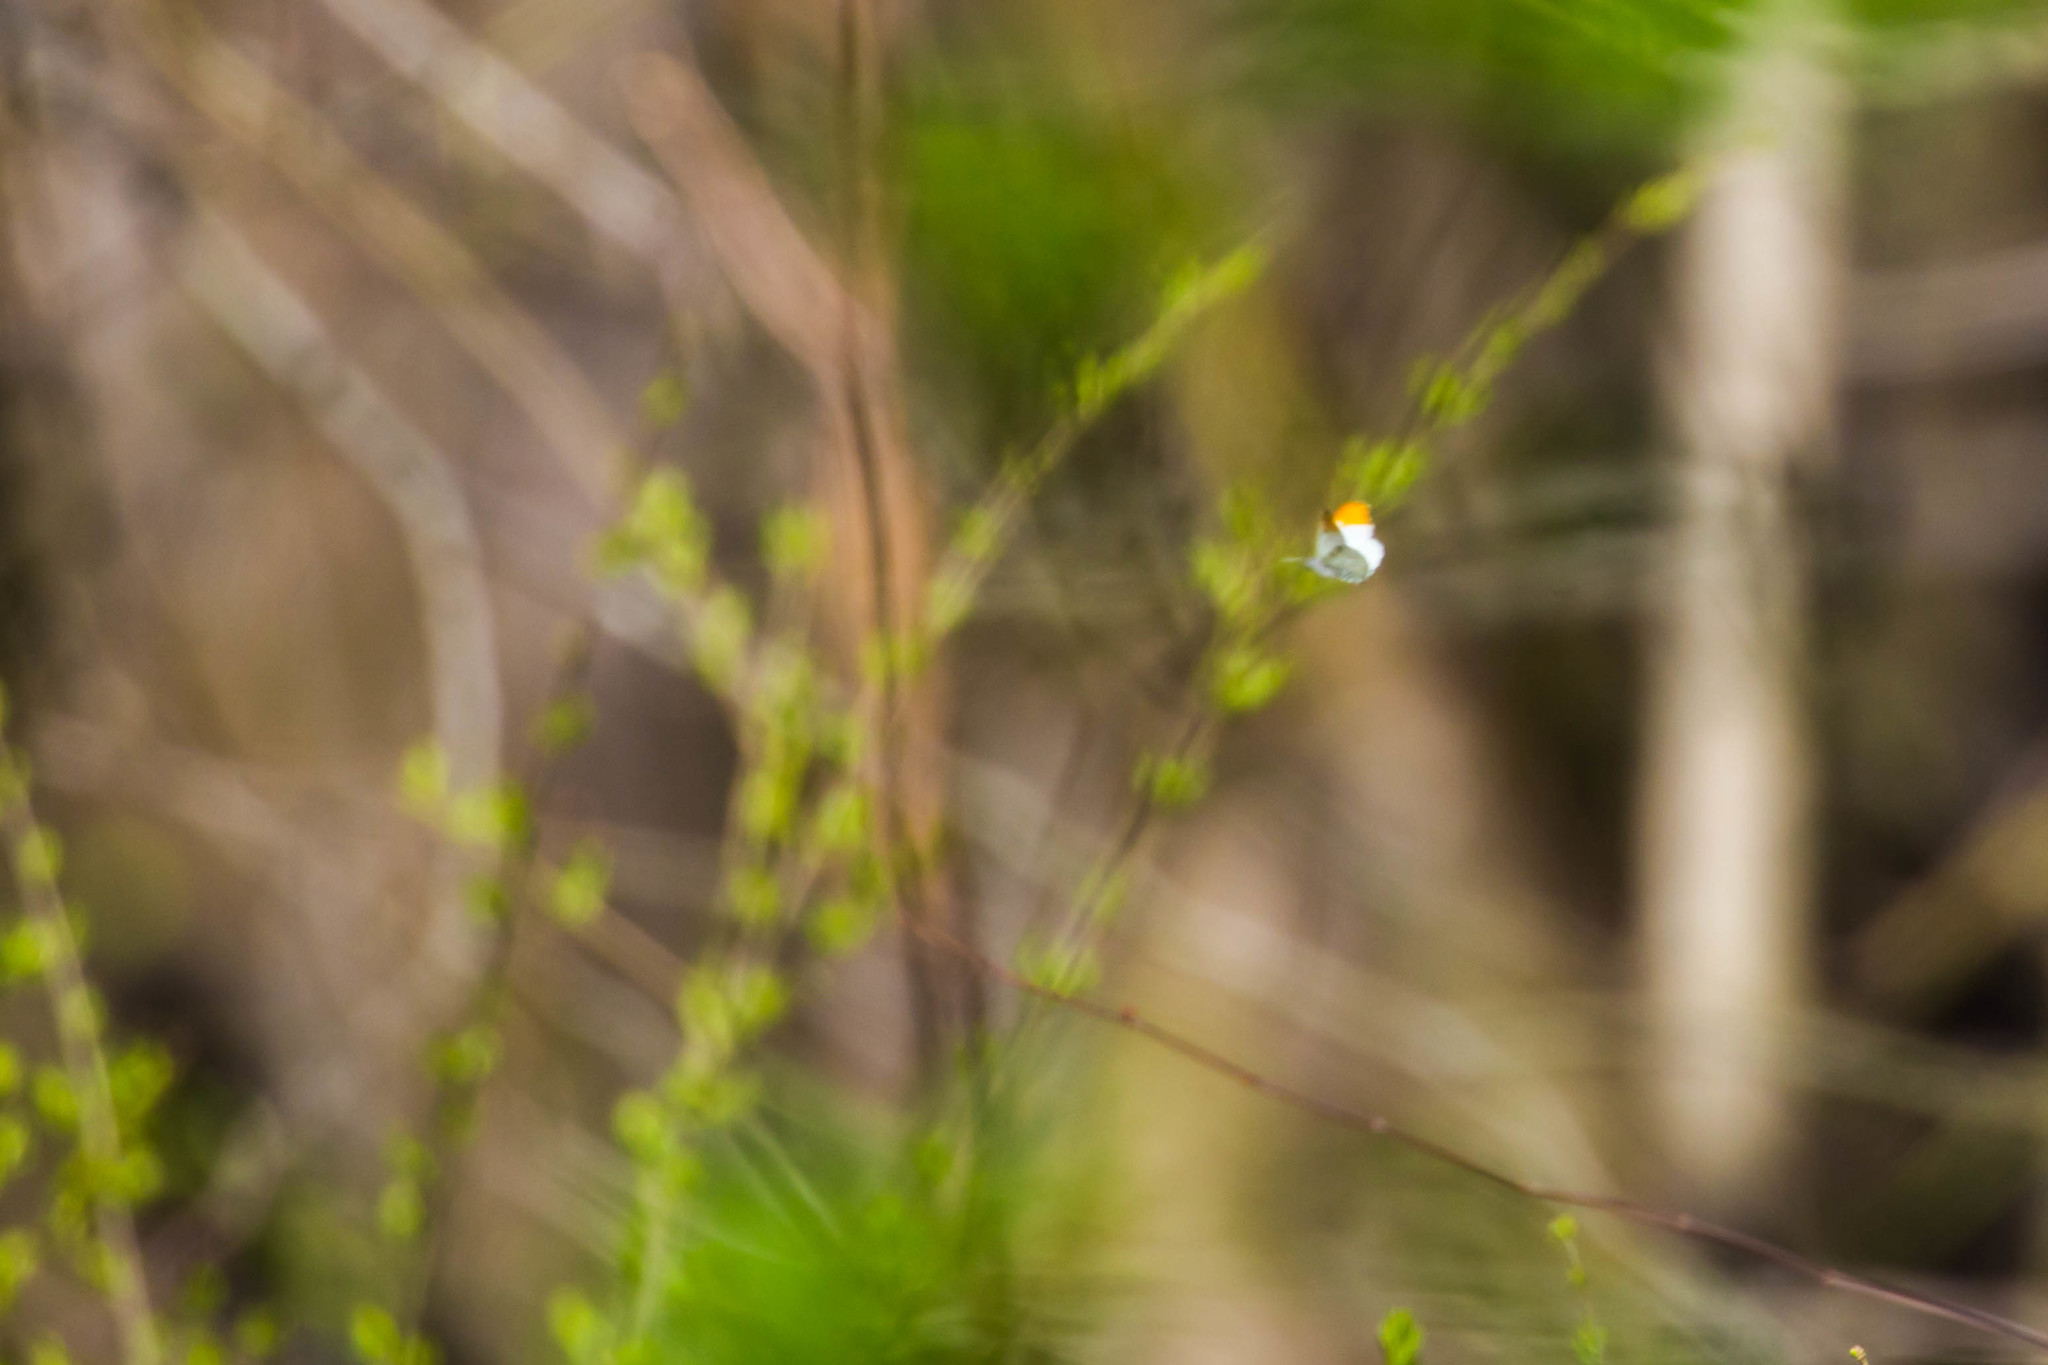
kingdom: Animalia
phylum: Arthropoda
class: Insecta
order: Lepidoptera
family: Pieridae
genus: Anthocharis
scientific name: Anthocharis midea
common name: Falcate orangetip
